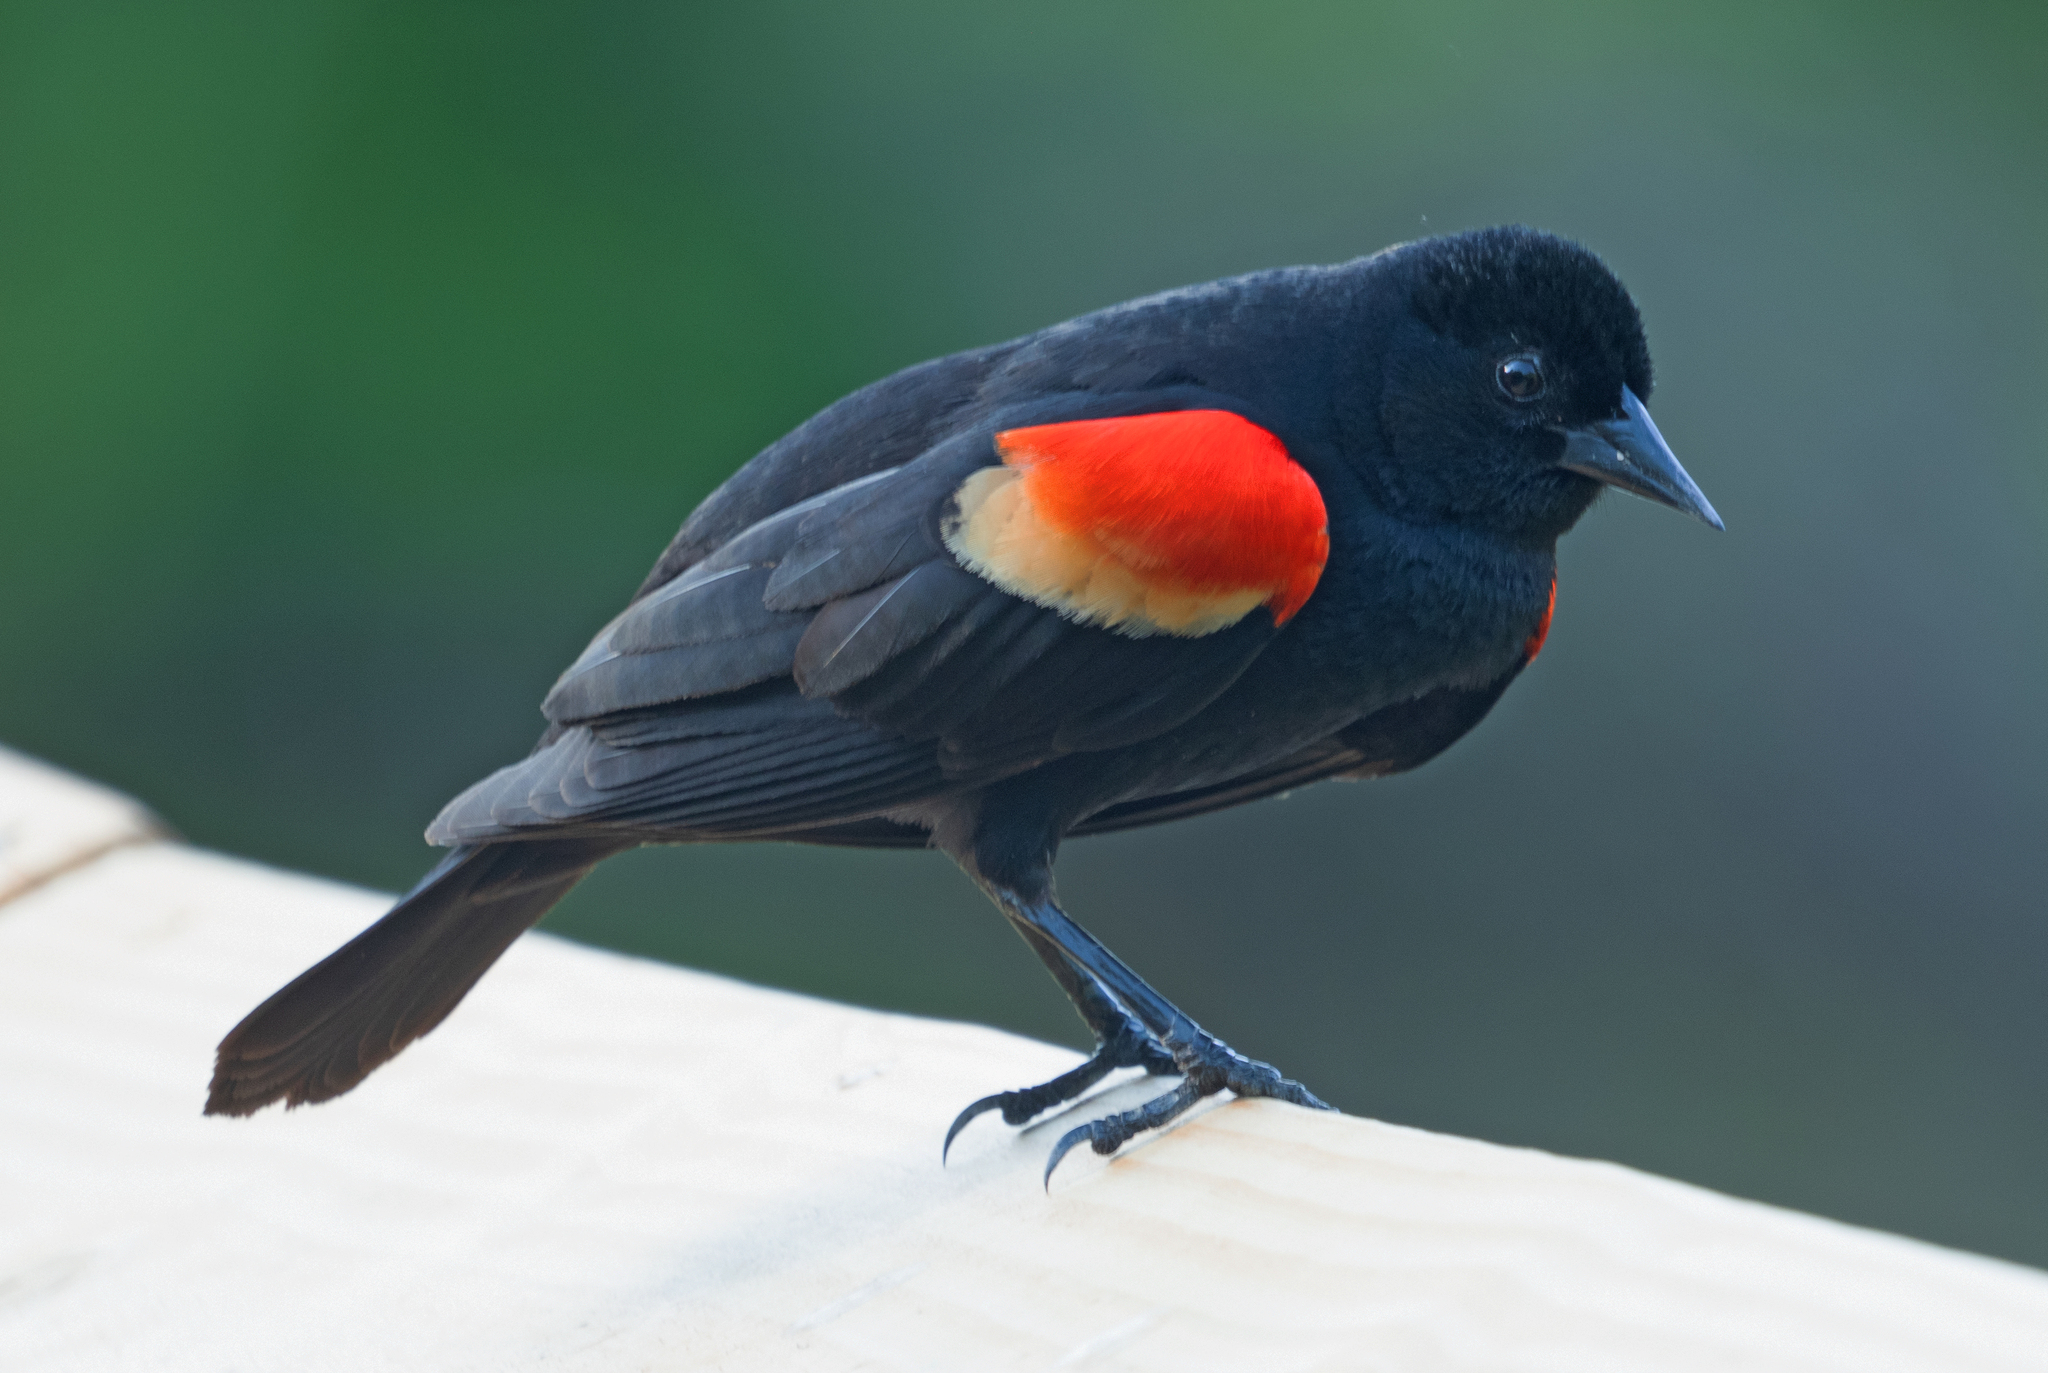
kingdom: Animalia
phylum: Chordata
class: Aves
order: Passeriformes
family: Icteridae
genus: Agelaius
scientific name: Agelaius phoeniceus
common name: Red-winged blackbird
